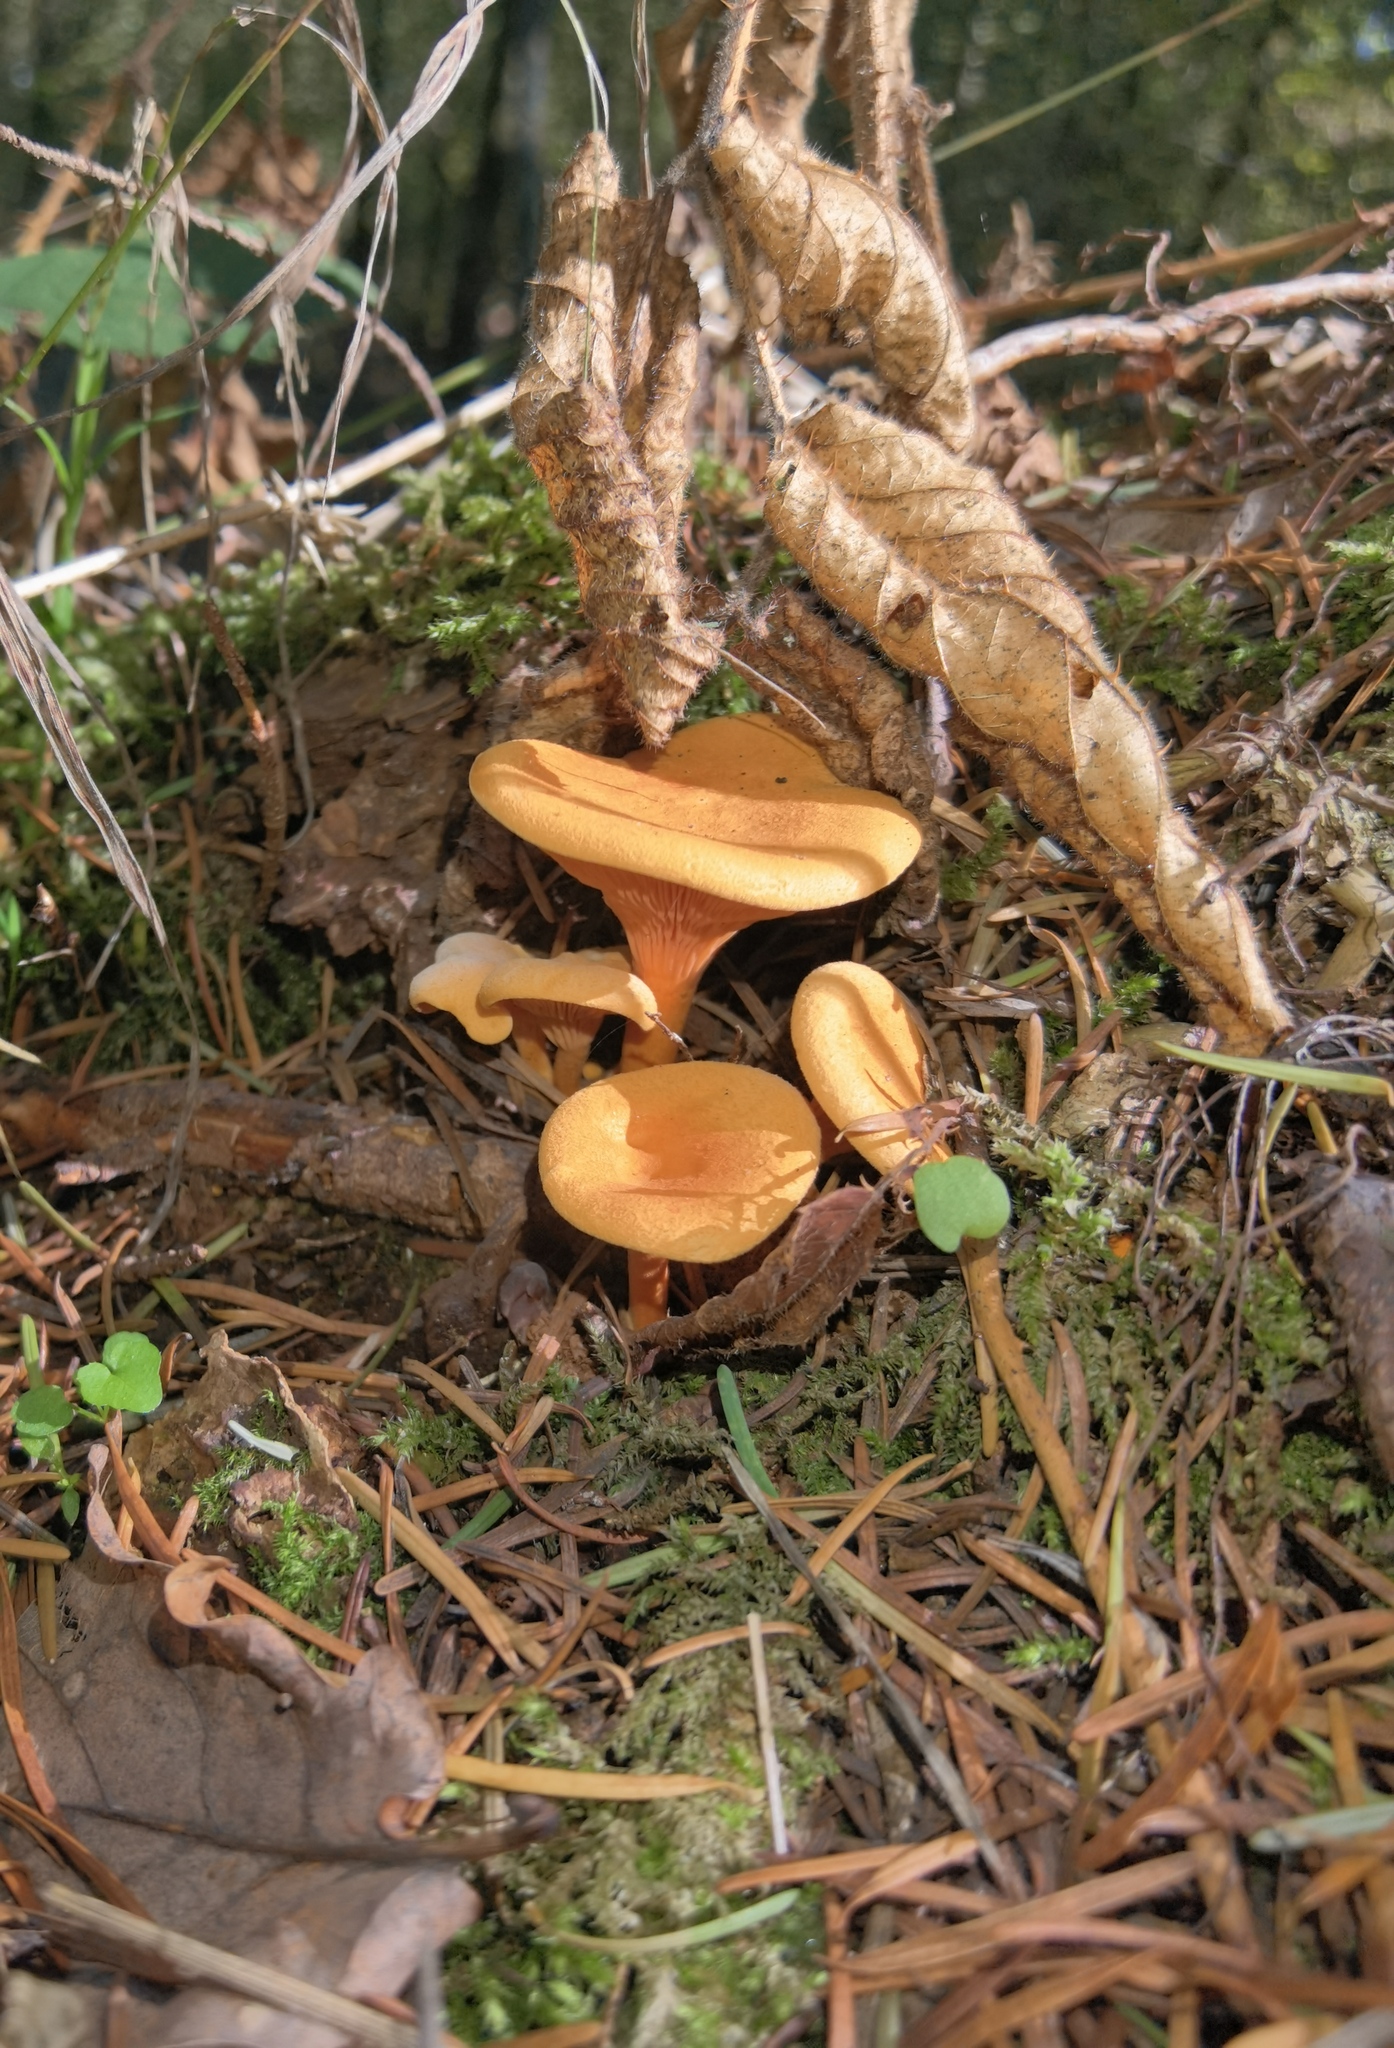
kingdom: Fungi
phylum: Basidiomycota
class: Agaricomycetes
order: Boletales
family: Hygrophoropsidaceae
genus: Hygrophoropsis
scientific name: Hygrophoropsis aurantiaca
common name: False chanterelle
